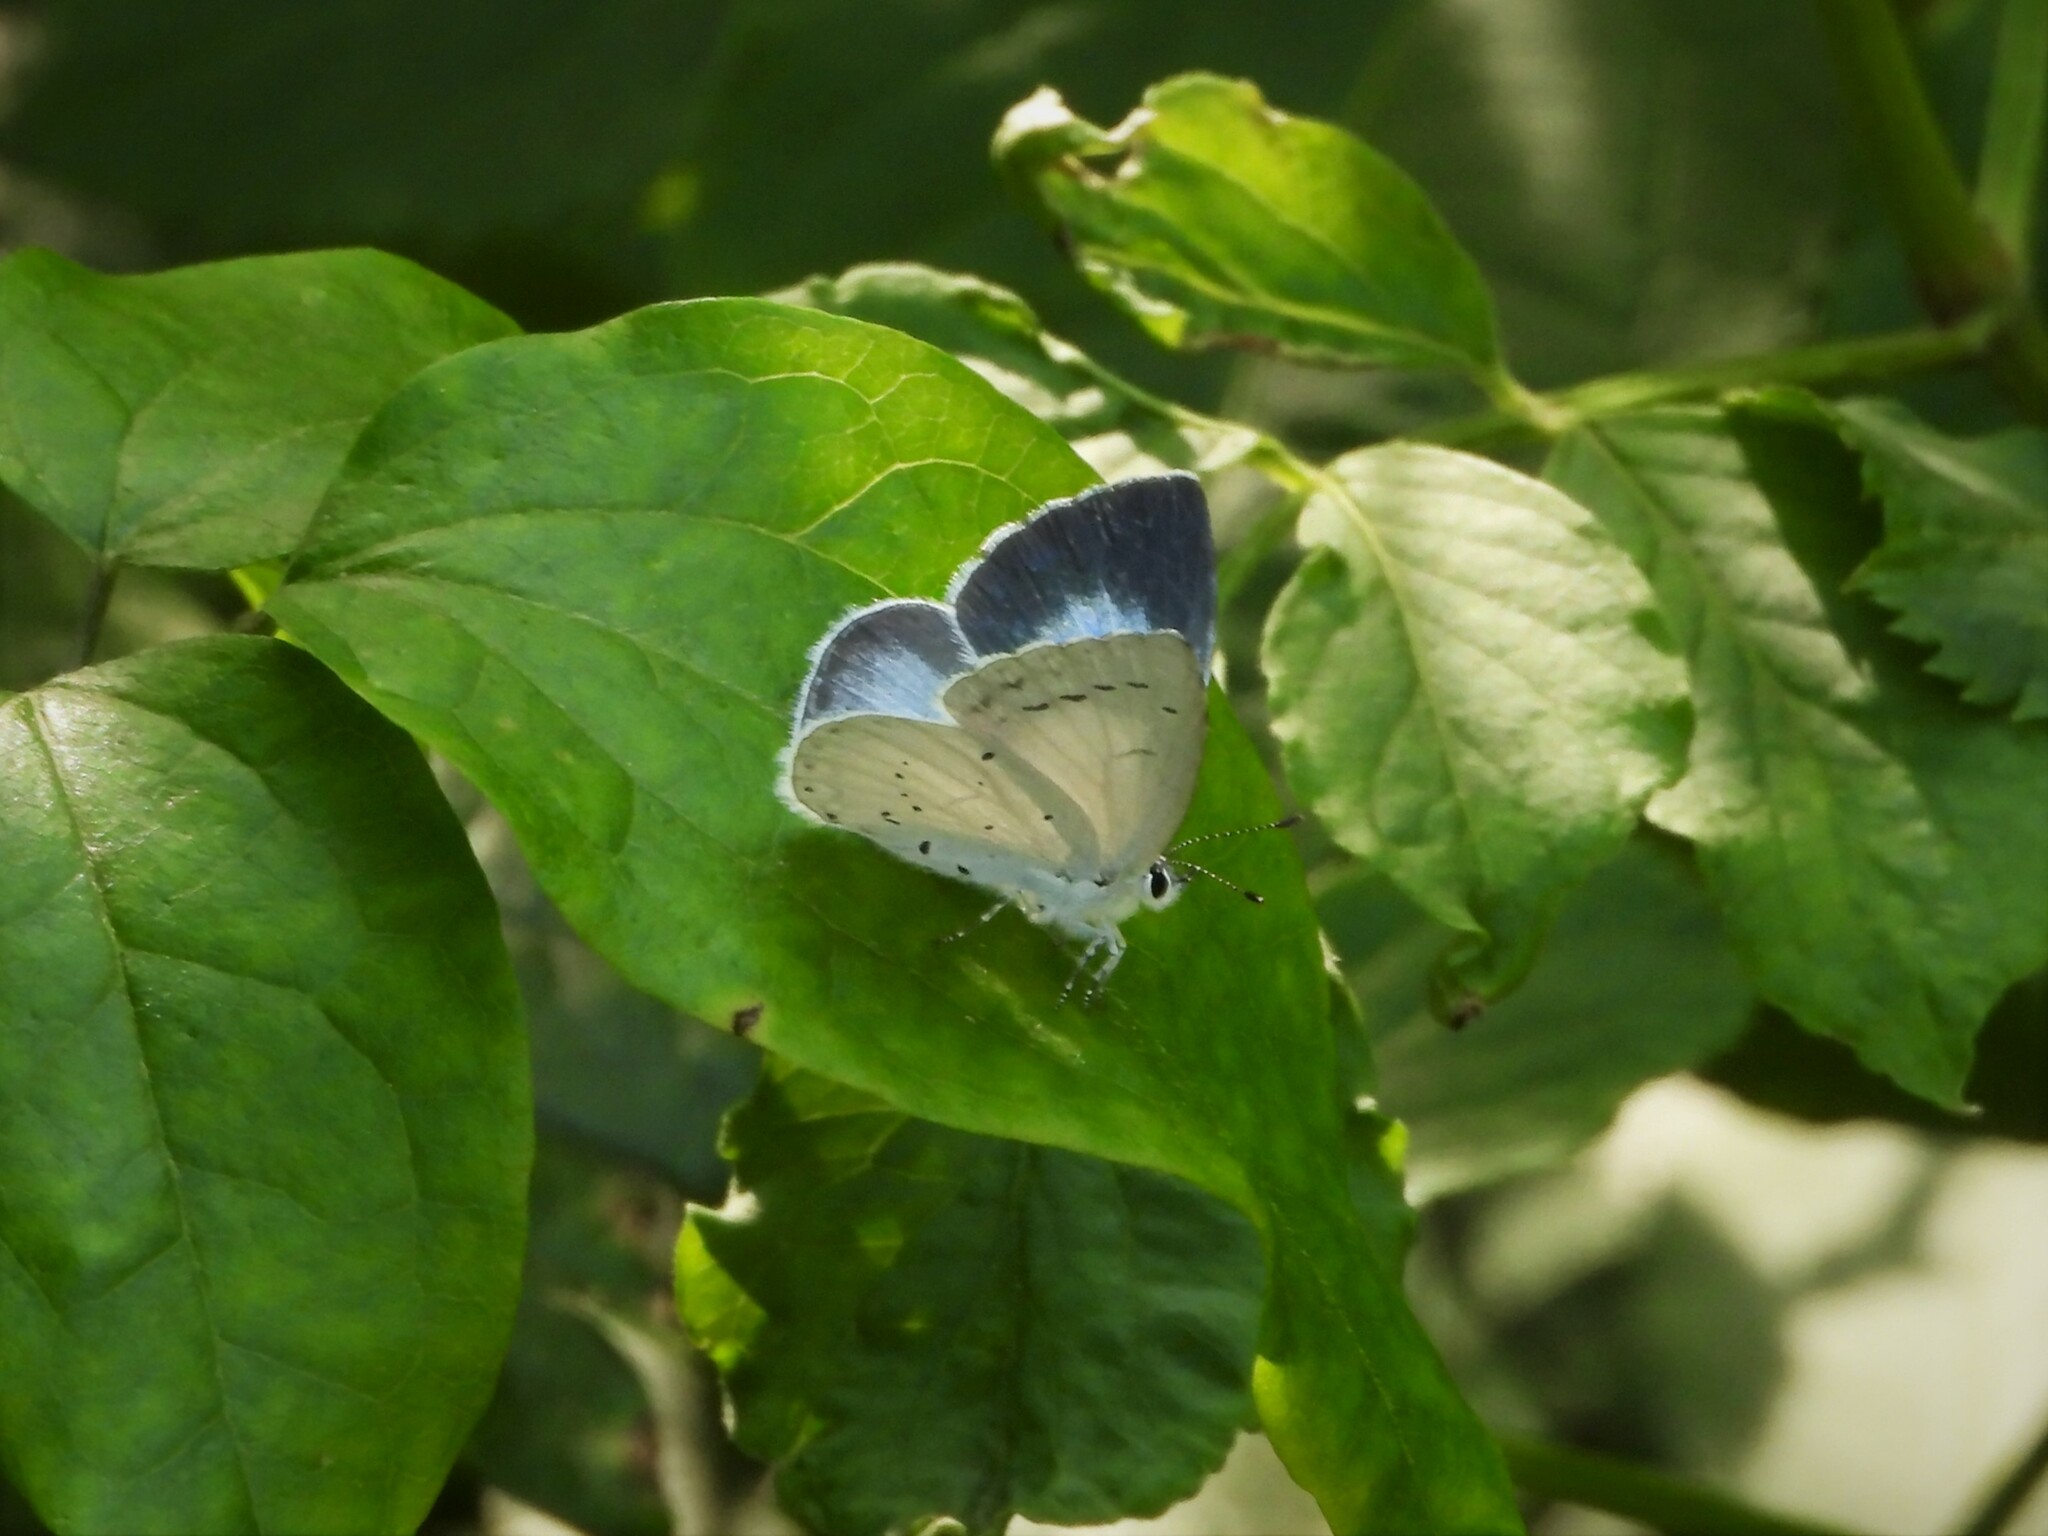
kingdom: Animalia
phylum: Arthropoda
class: Insecta
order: Lepidoptera
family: Lycaenidae
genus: Celastrina
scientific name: Celastrina argiolus
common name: Holly blue
